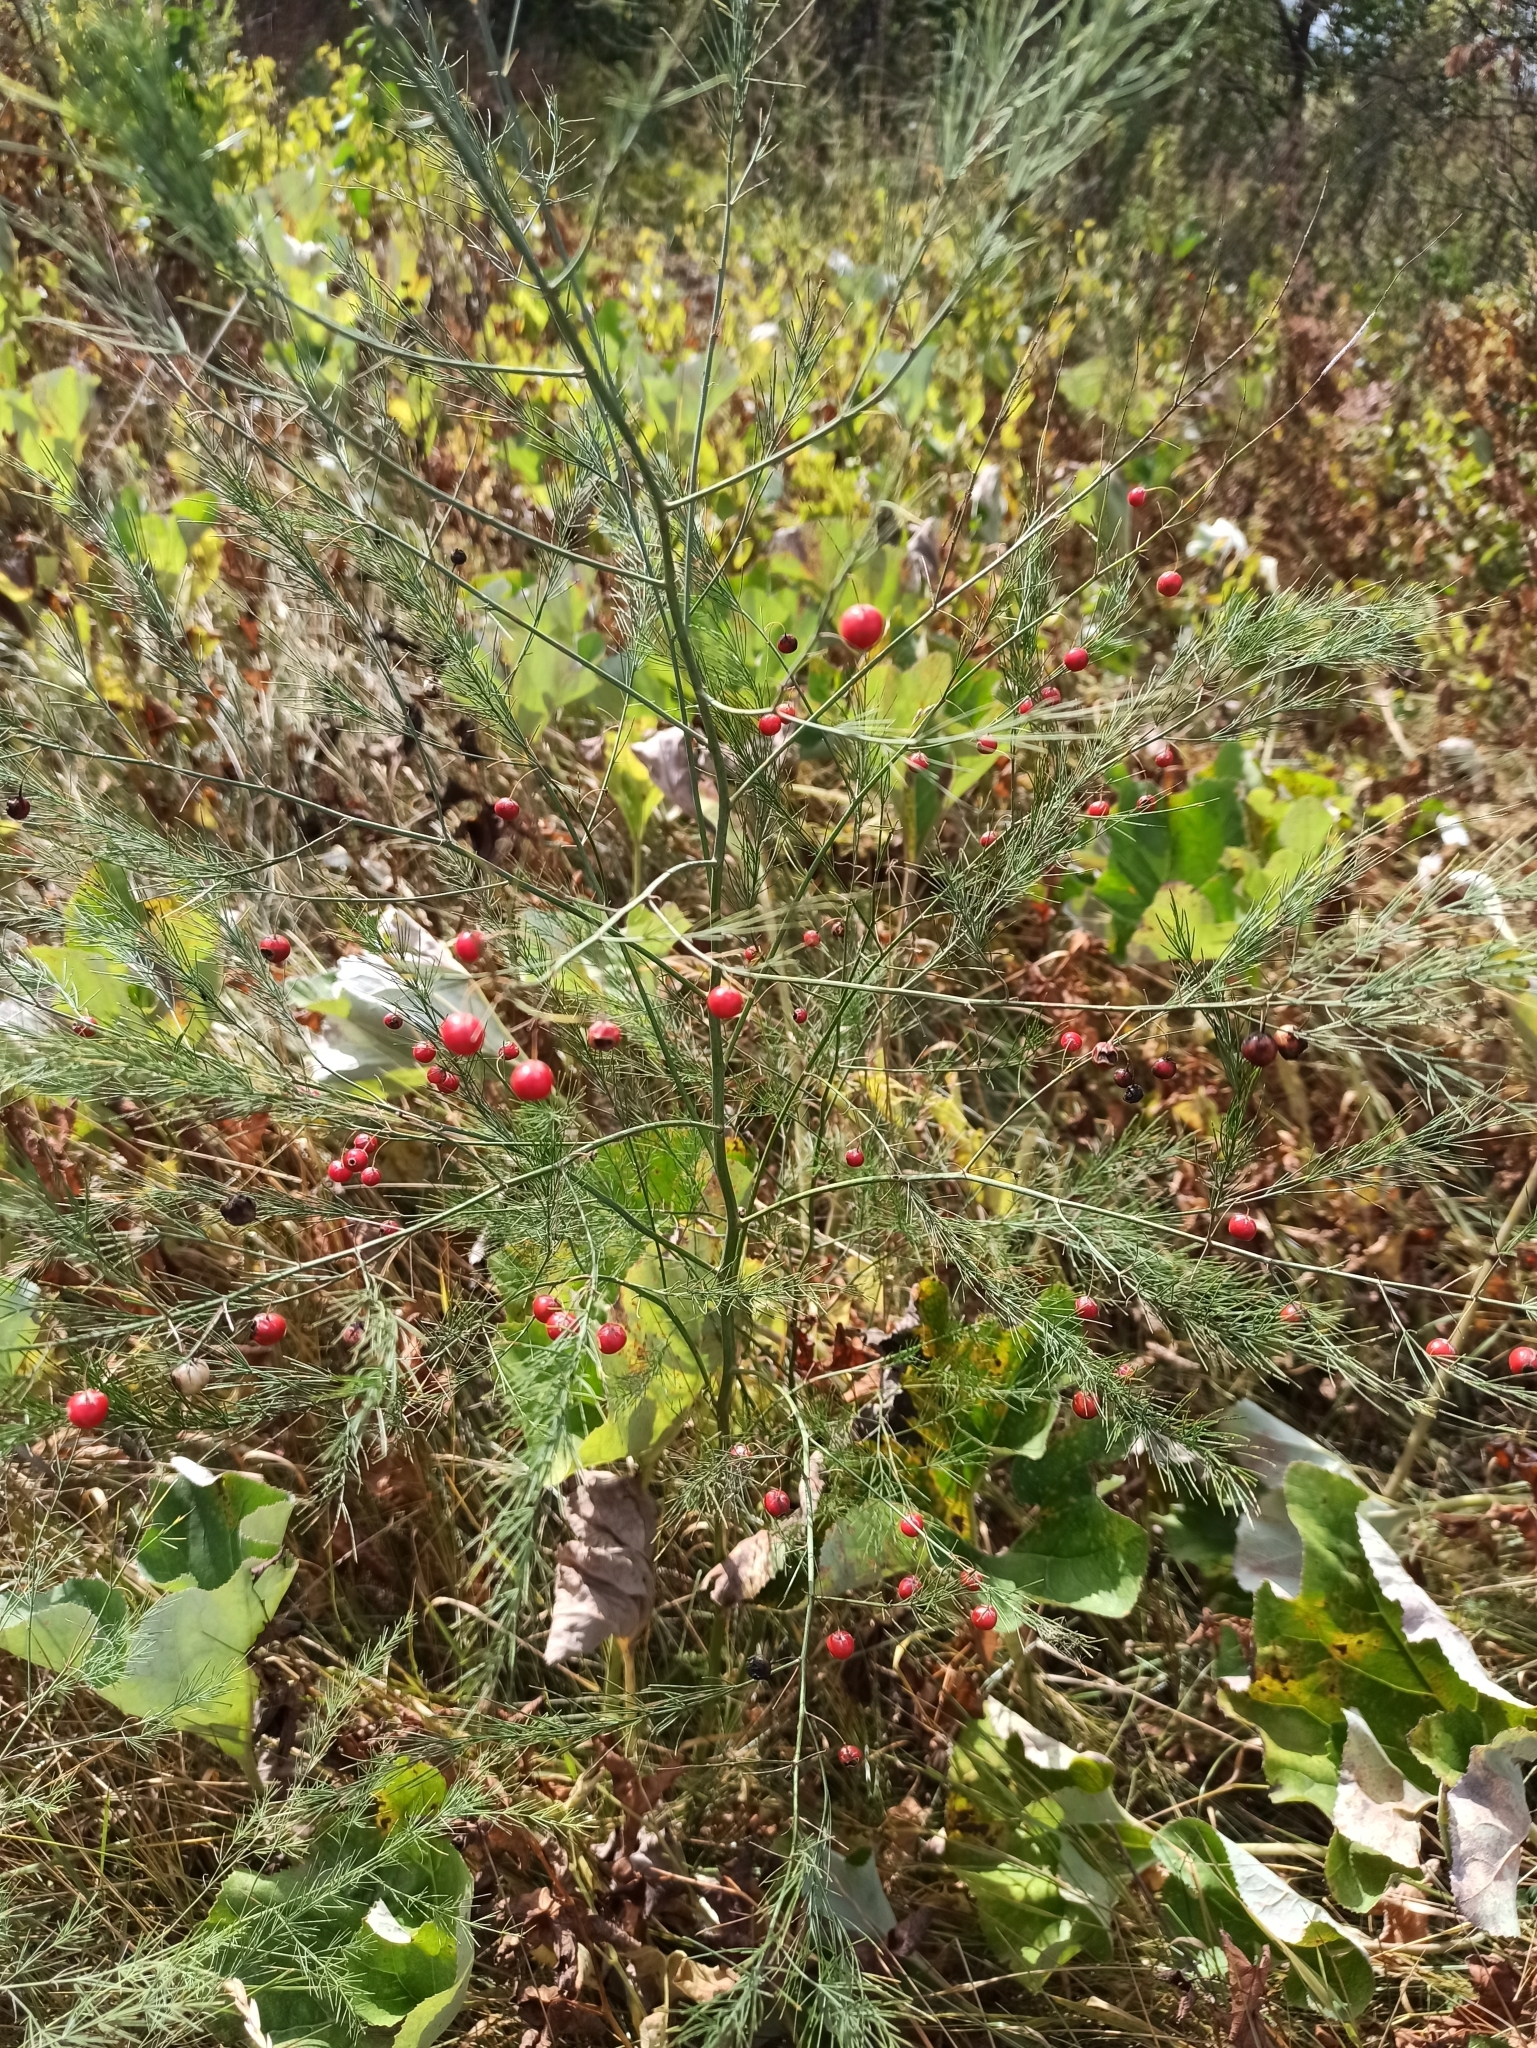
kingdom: Plantae
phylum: Tracheophyta
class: Liliopsida
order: Asparagales
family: Asparagaceae
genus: Asparagus
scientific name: Asparagus officinalis
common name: Garden asparagus
